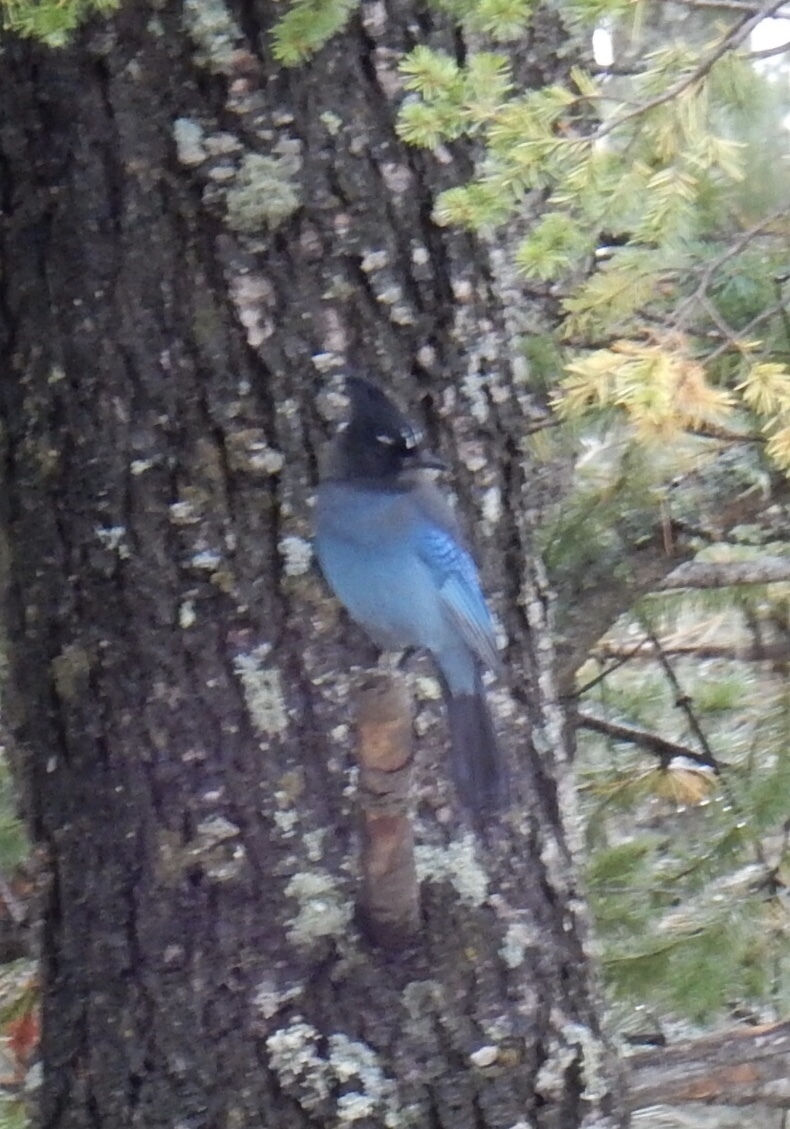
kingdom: Animalia
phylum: Chordata
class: Aves
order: Passeriformes
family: Corvidae
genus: Cyanocitta
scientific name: Cyanocitta stelleri
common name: Steller's jay
